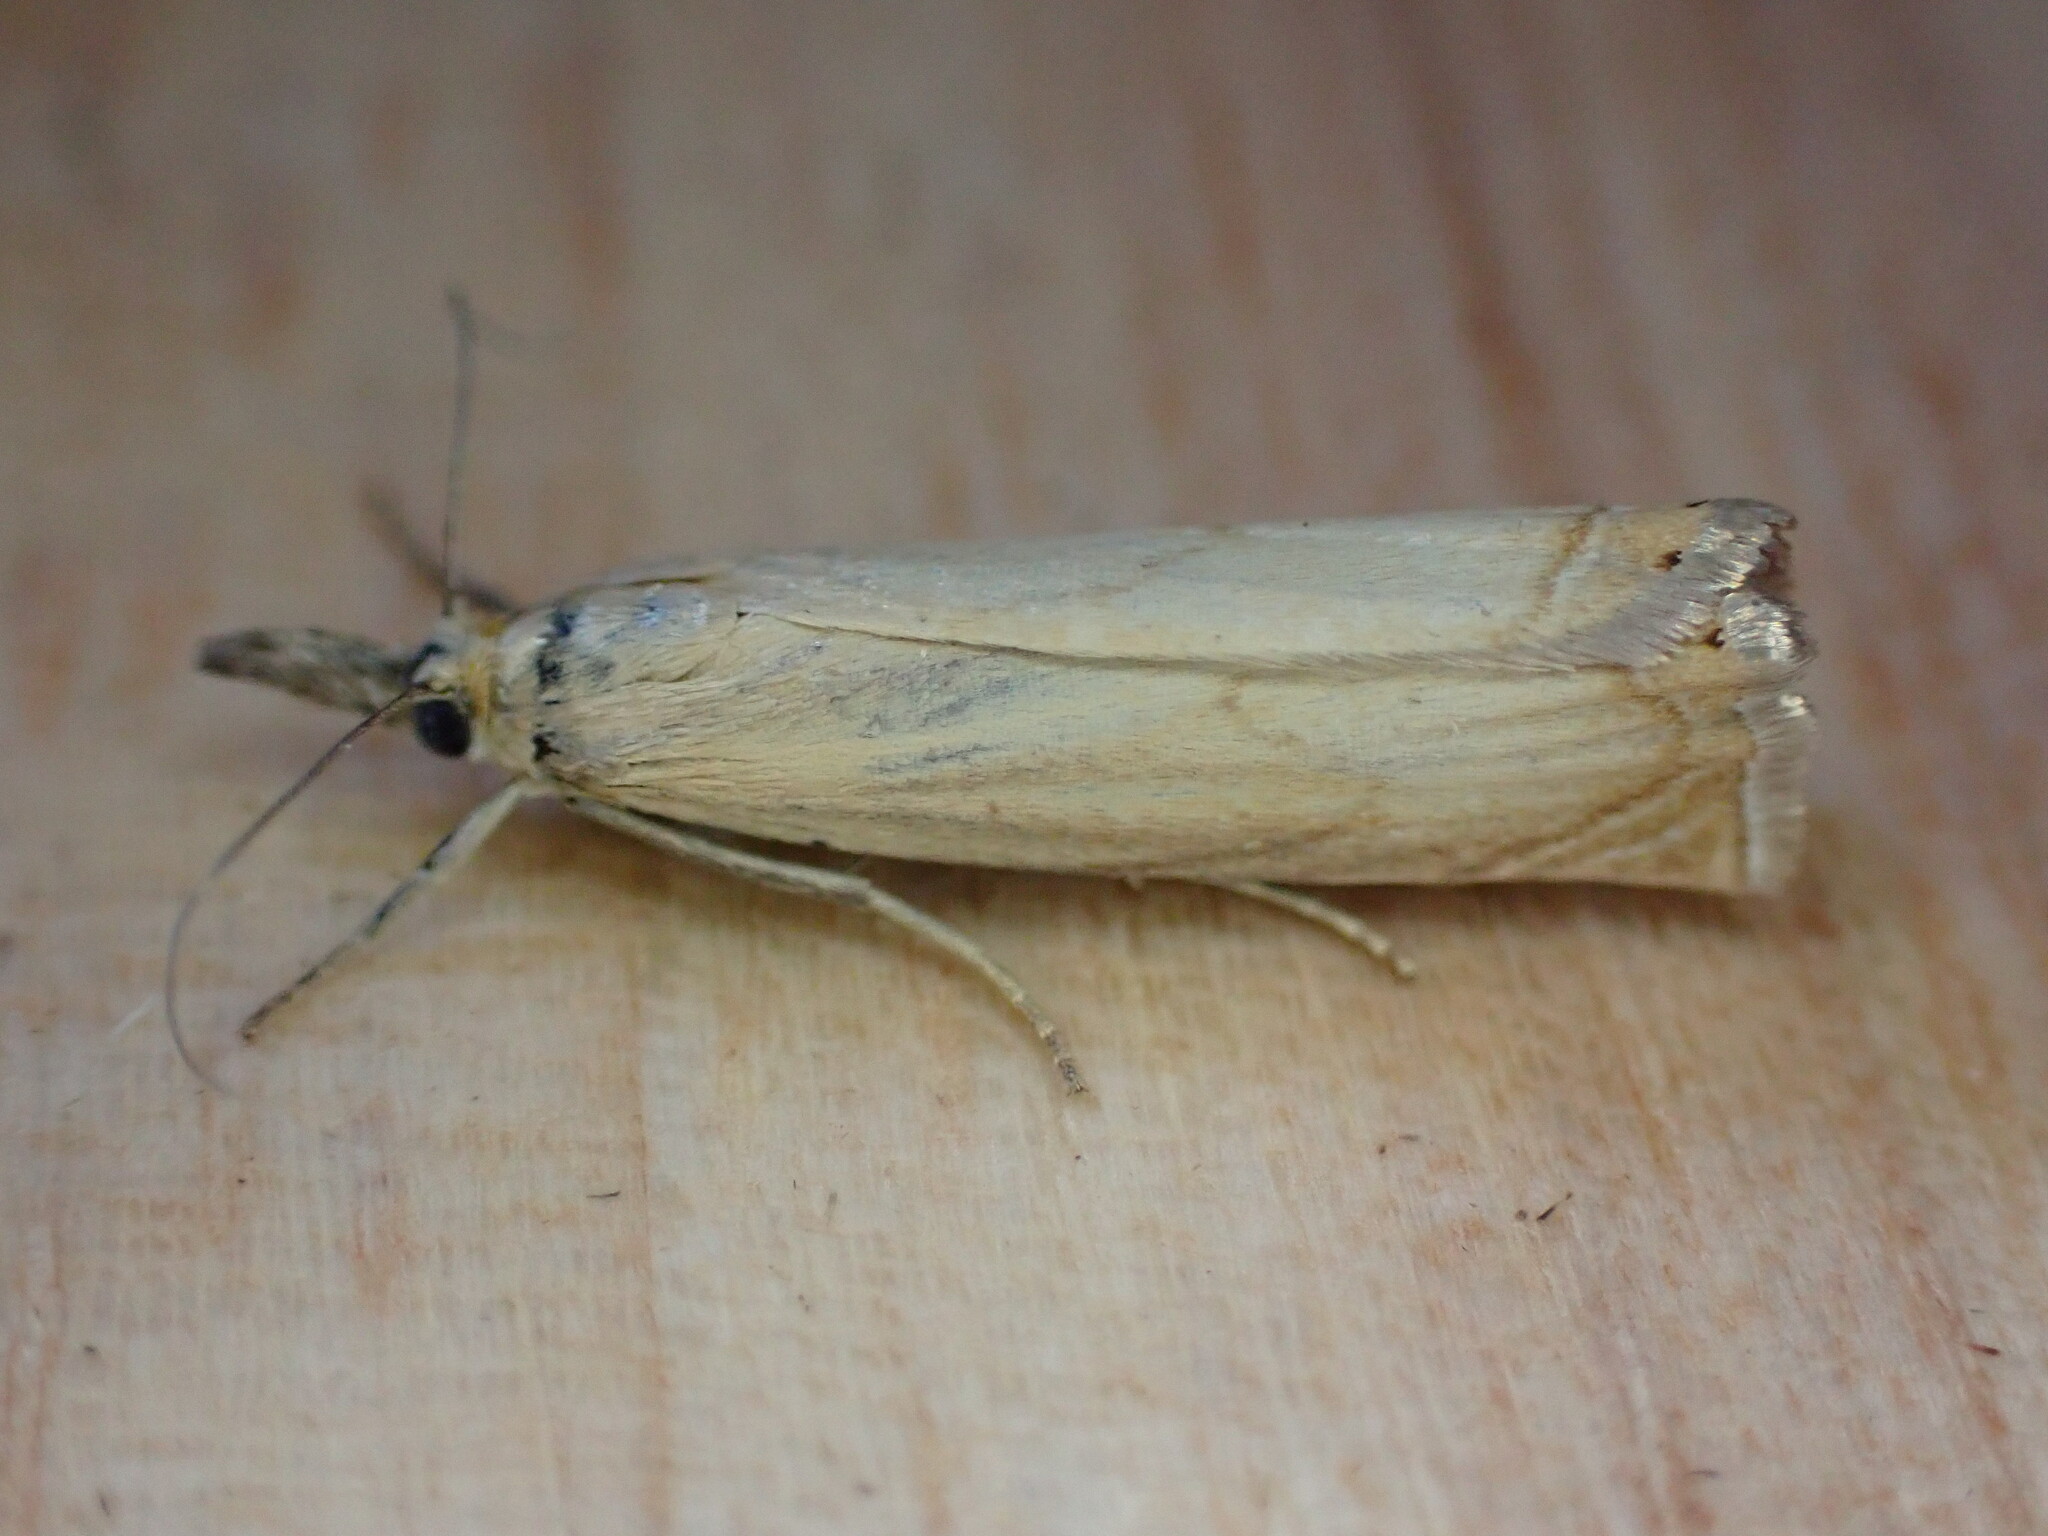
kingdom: Animalia
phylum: Arthropoda
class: Insecta
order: Lepidoptera
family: Crambidae
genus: Chrysoteuchia
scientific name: Chrysoteuchia culmella
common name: Garden grass-veneer
